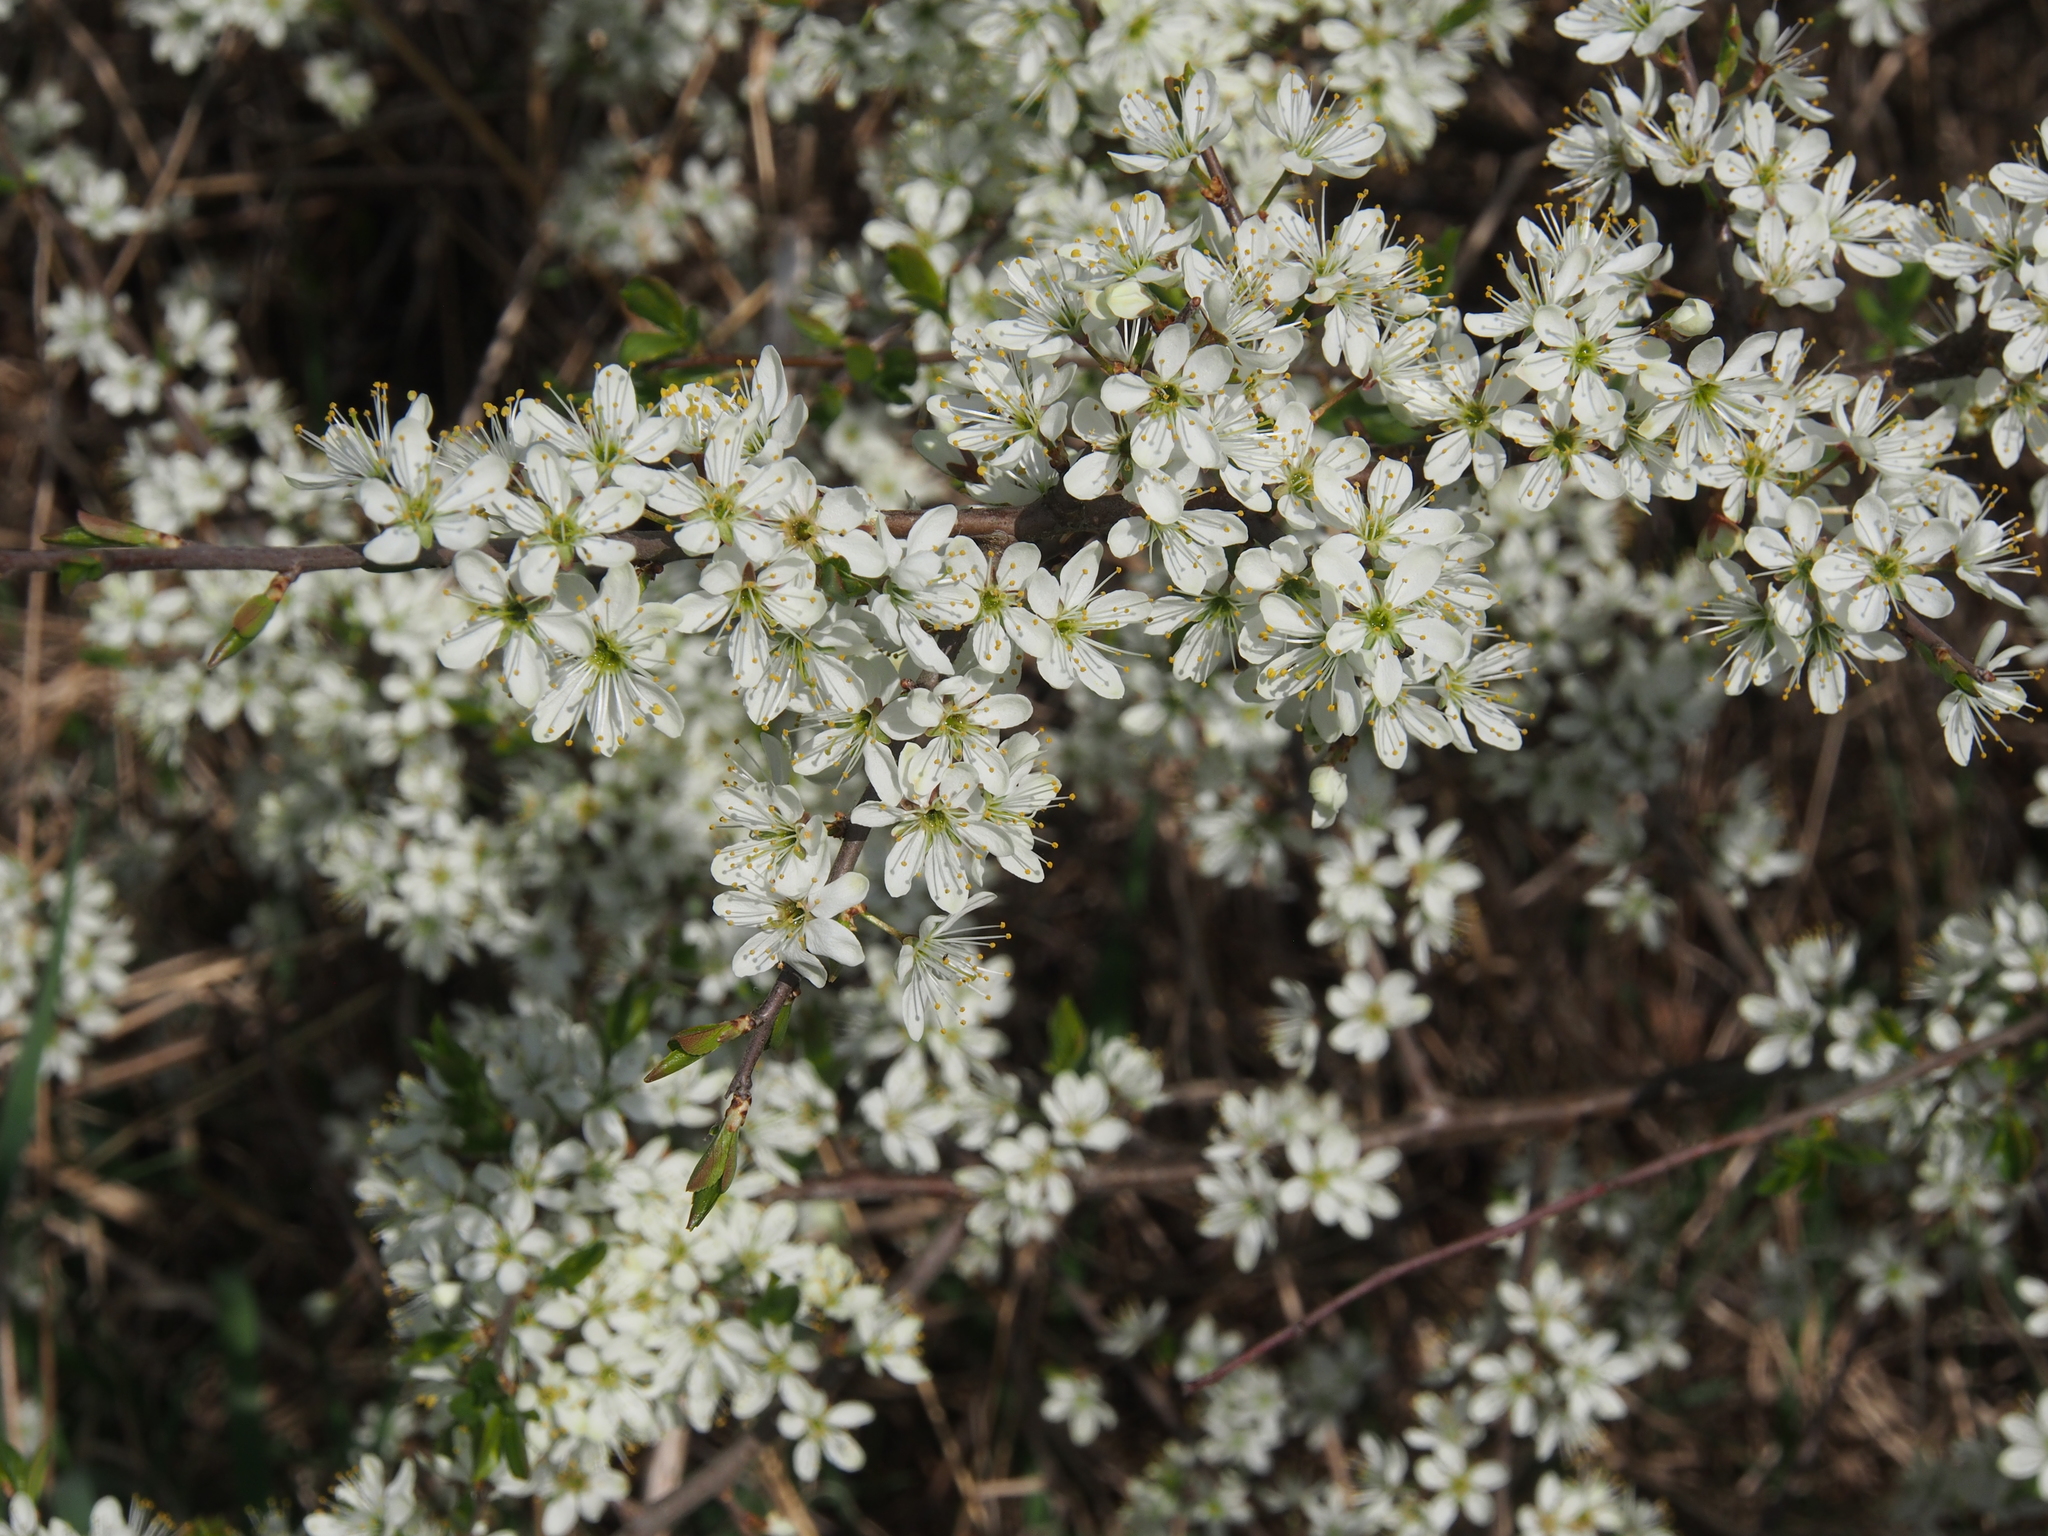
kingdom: Plantae
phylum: Tracheophyta
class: Magnoliopsida
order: Rosales
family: Rosaceae
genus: Prunus
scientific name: Prunus spinosa
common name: Blackthorn
